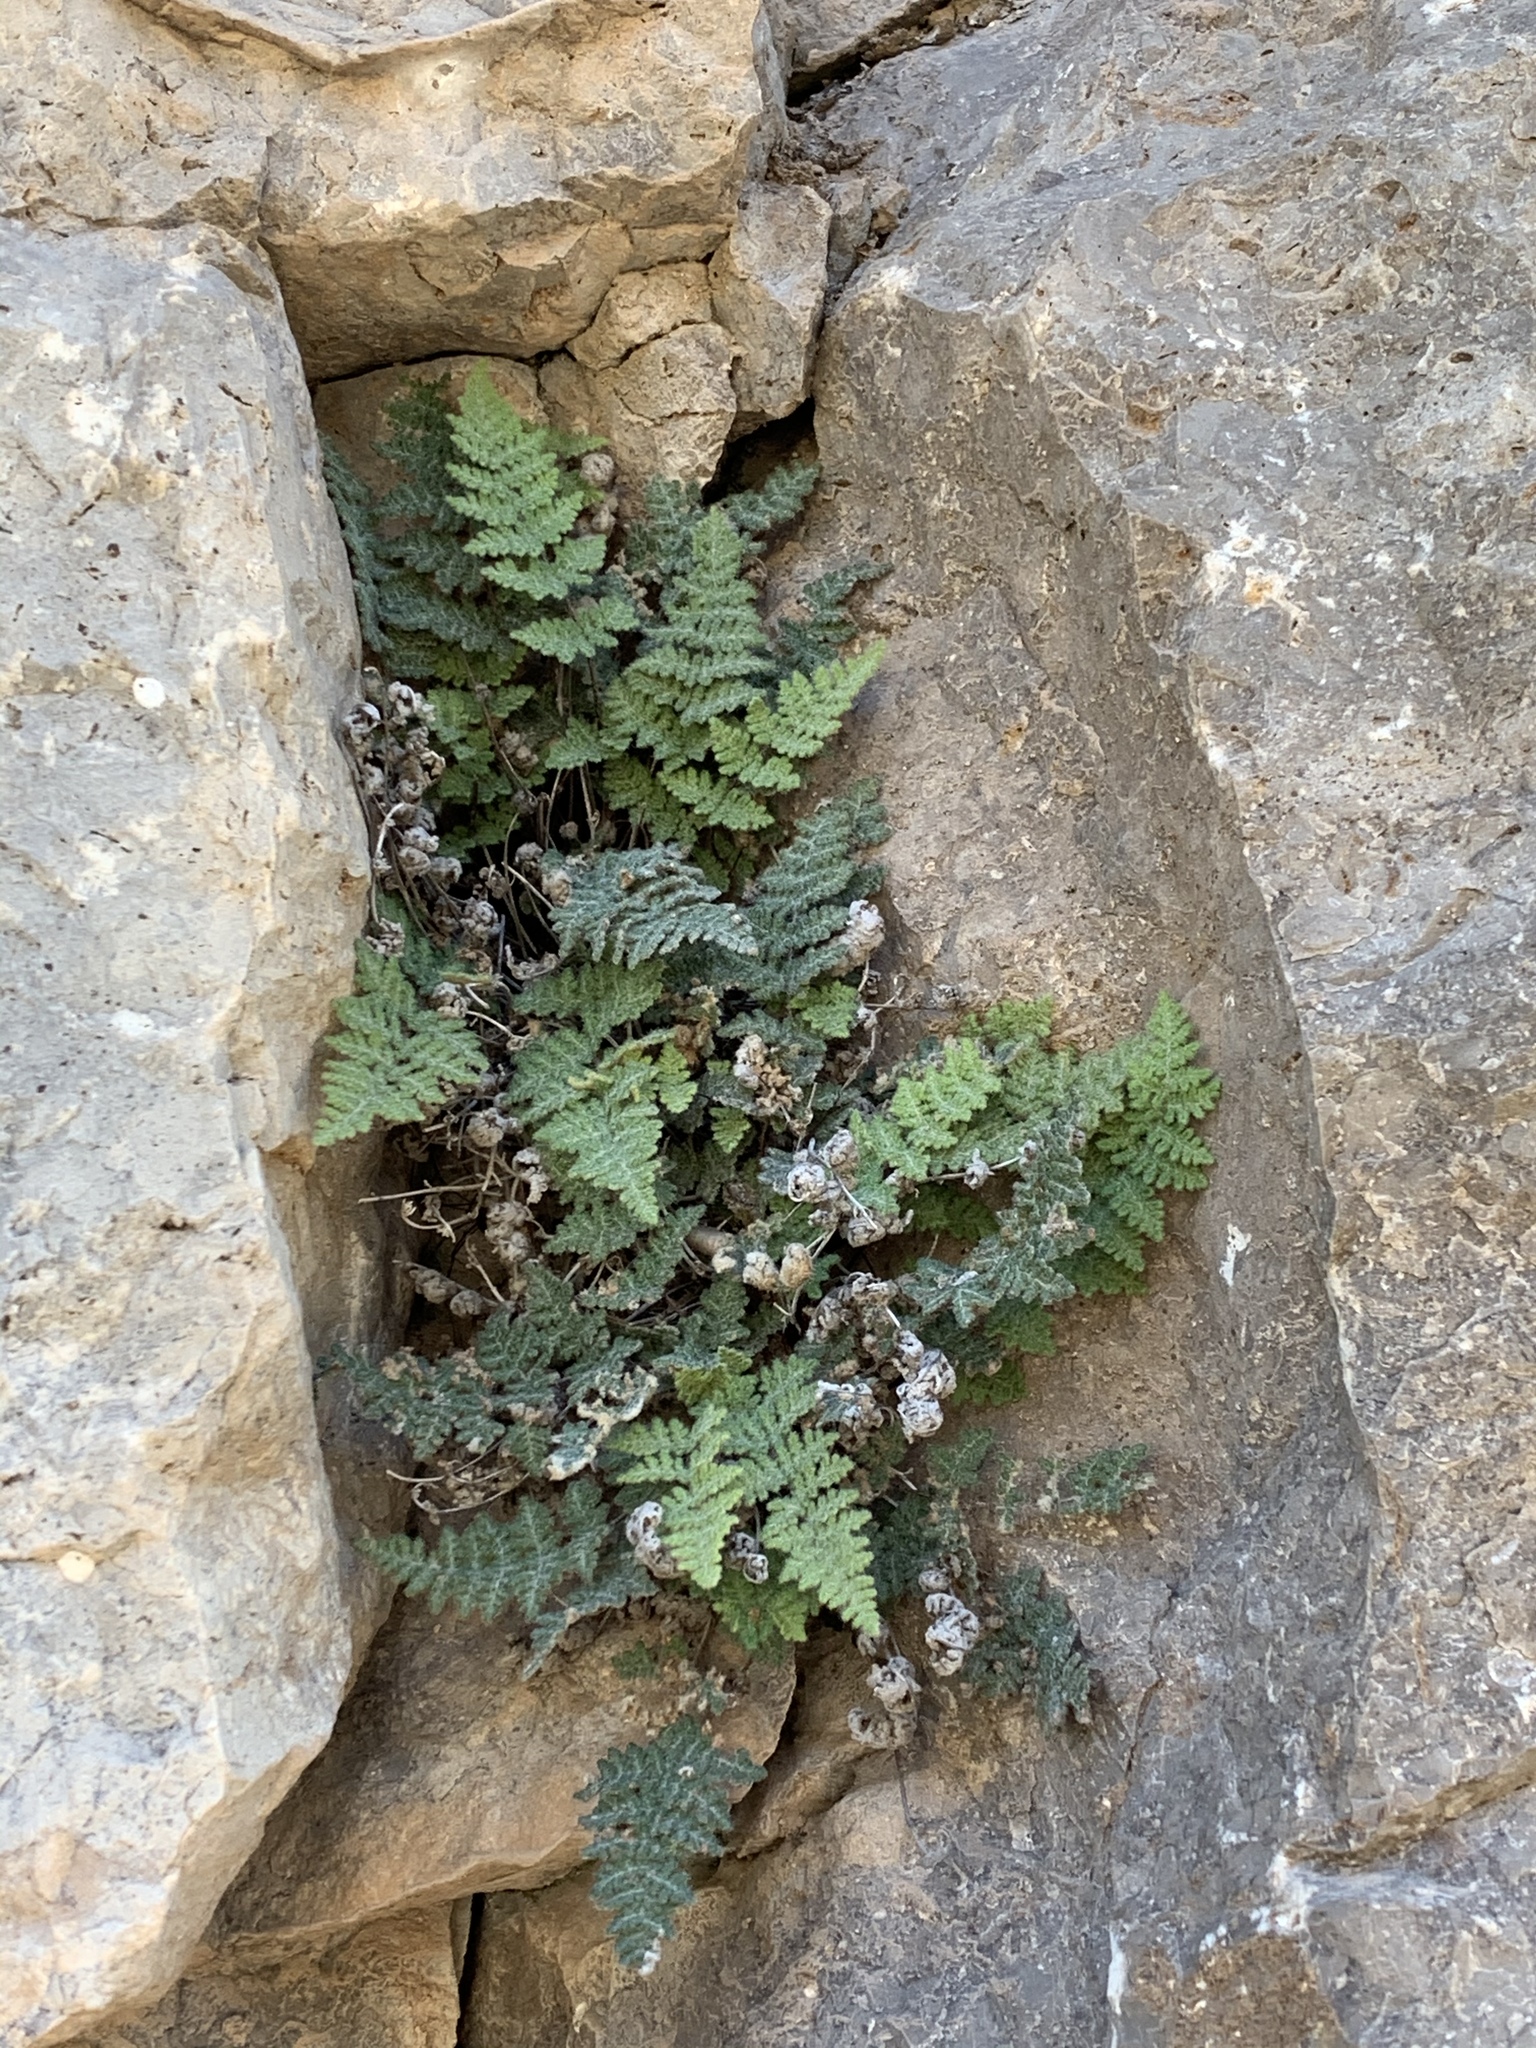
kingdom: Plantae
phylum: Tracheophyta
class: Polypodiopsida
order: Polypodiales
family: Pteridaceae
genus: Myriopteris
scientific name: Myriopteris gracilis
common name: Fee's lip fern
